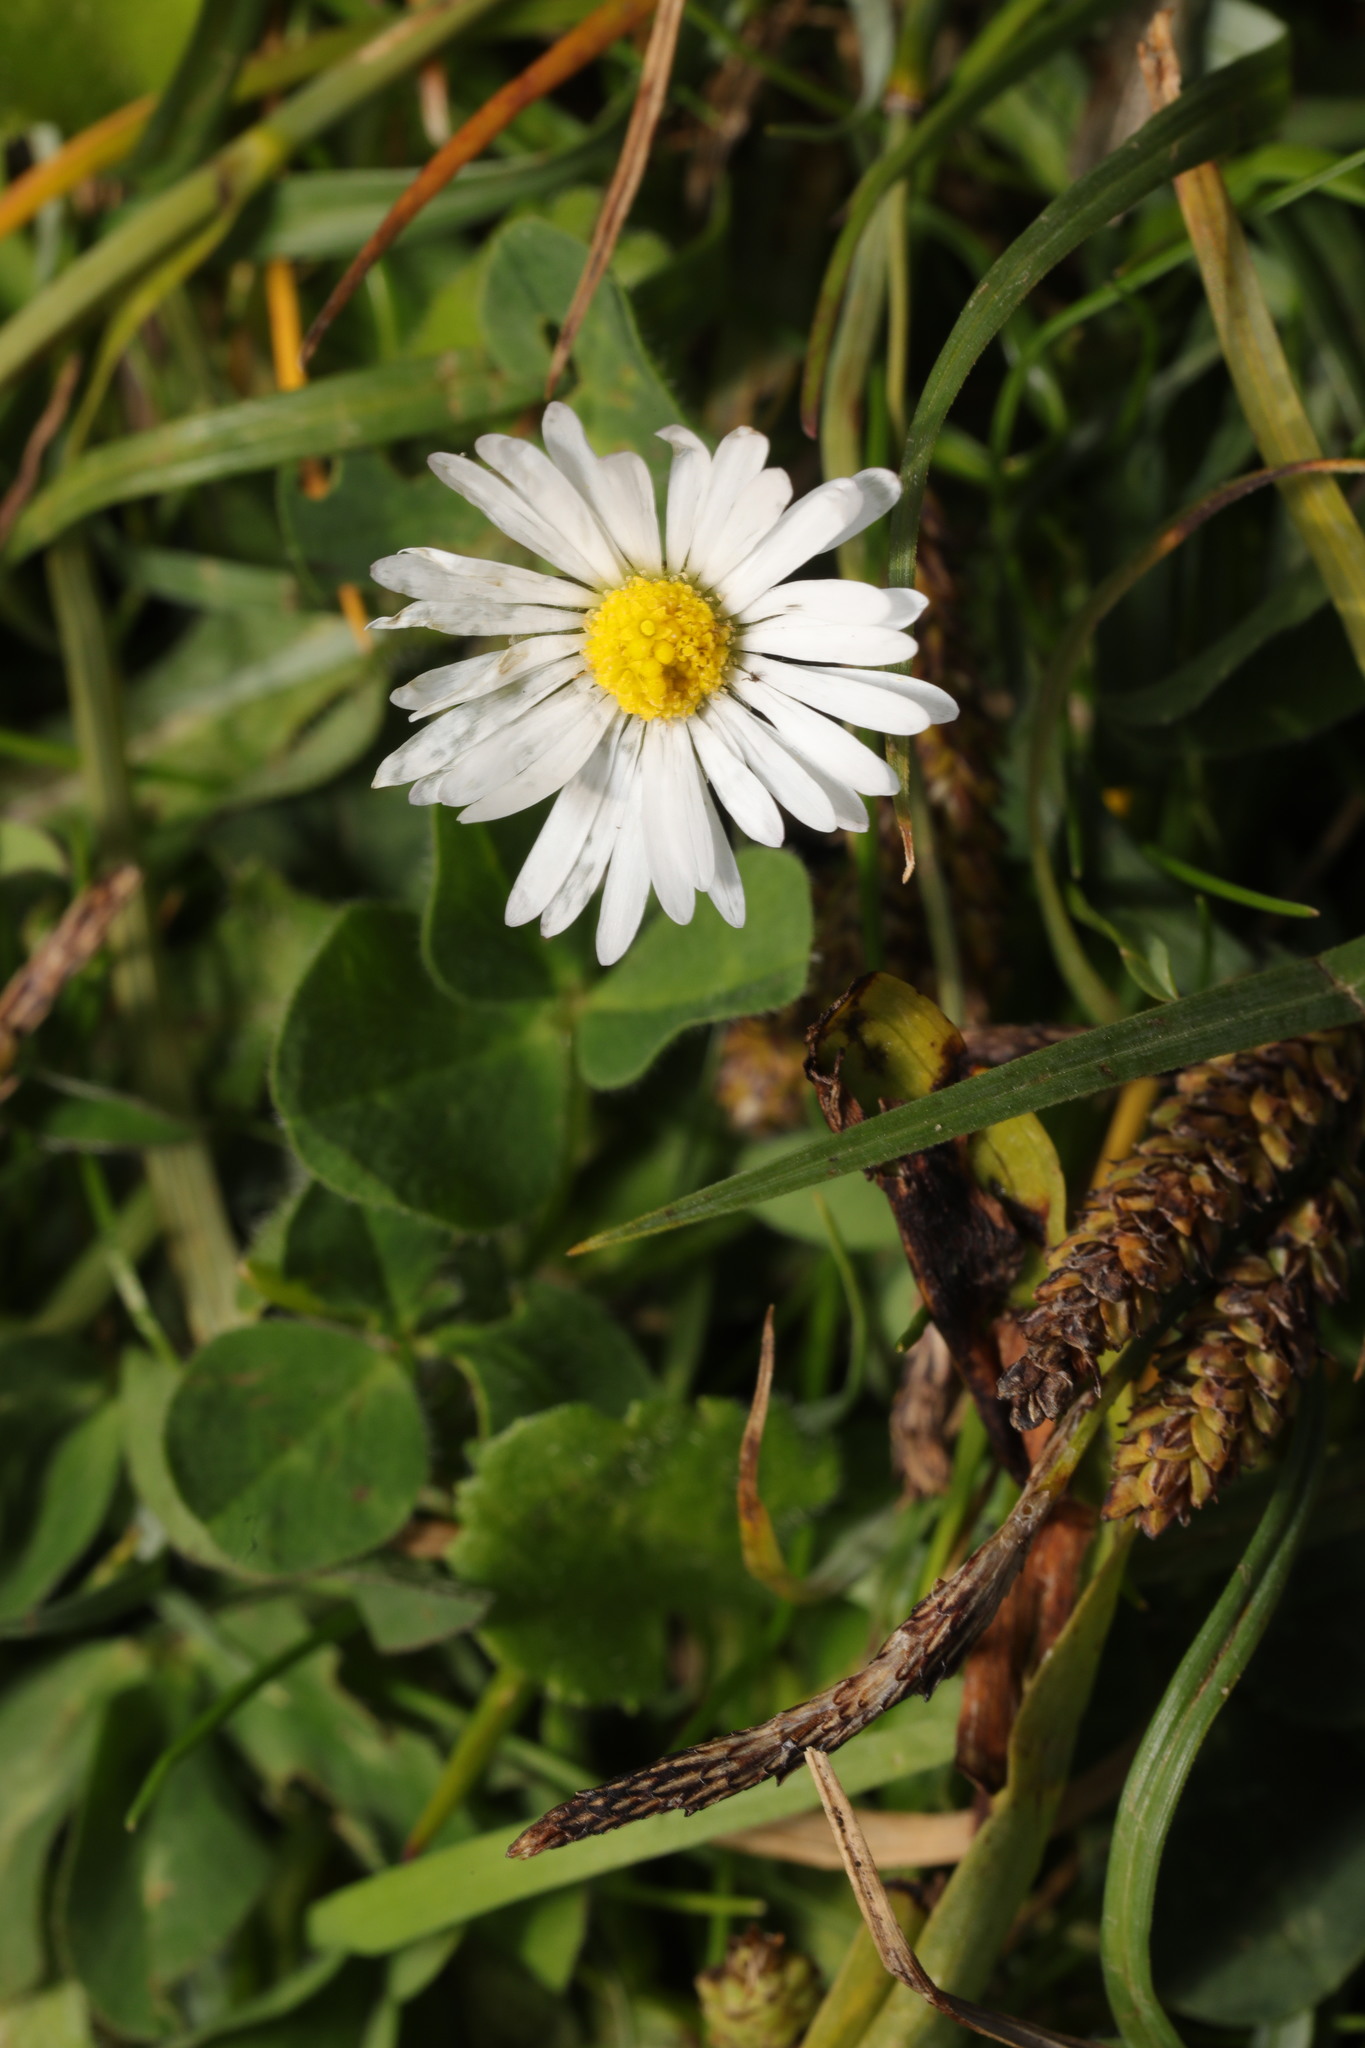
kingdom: Plantae
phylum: Tracheophyta
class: Magnoliopsida
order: Asterales
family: Asteraceae
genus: Bellis
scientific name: Bellis perennis
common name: Lawndaisy
